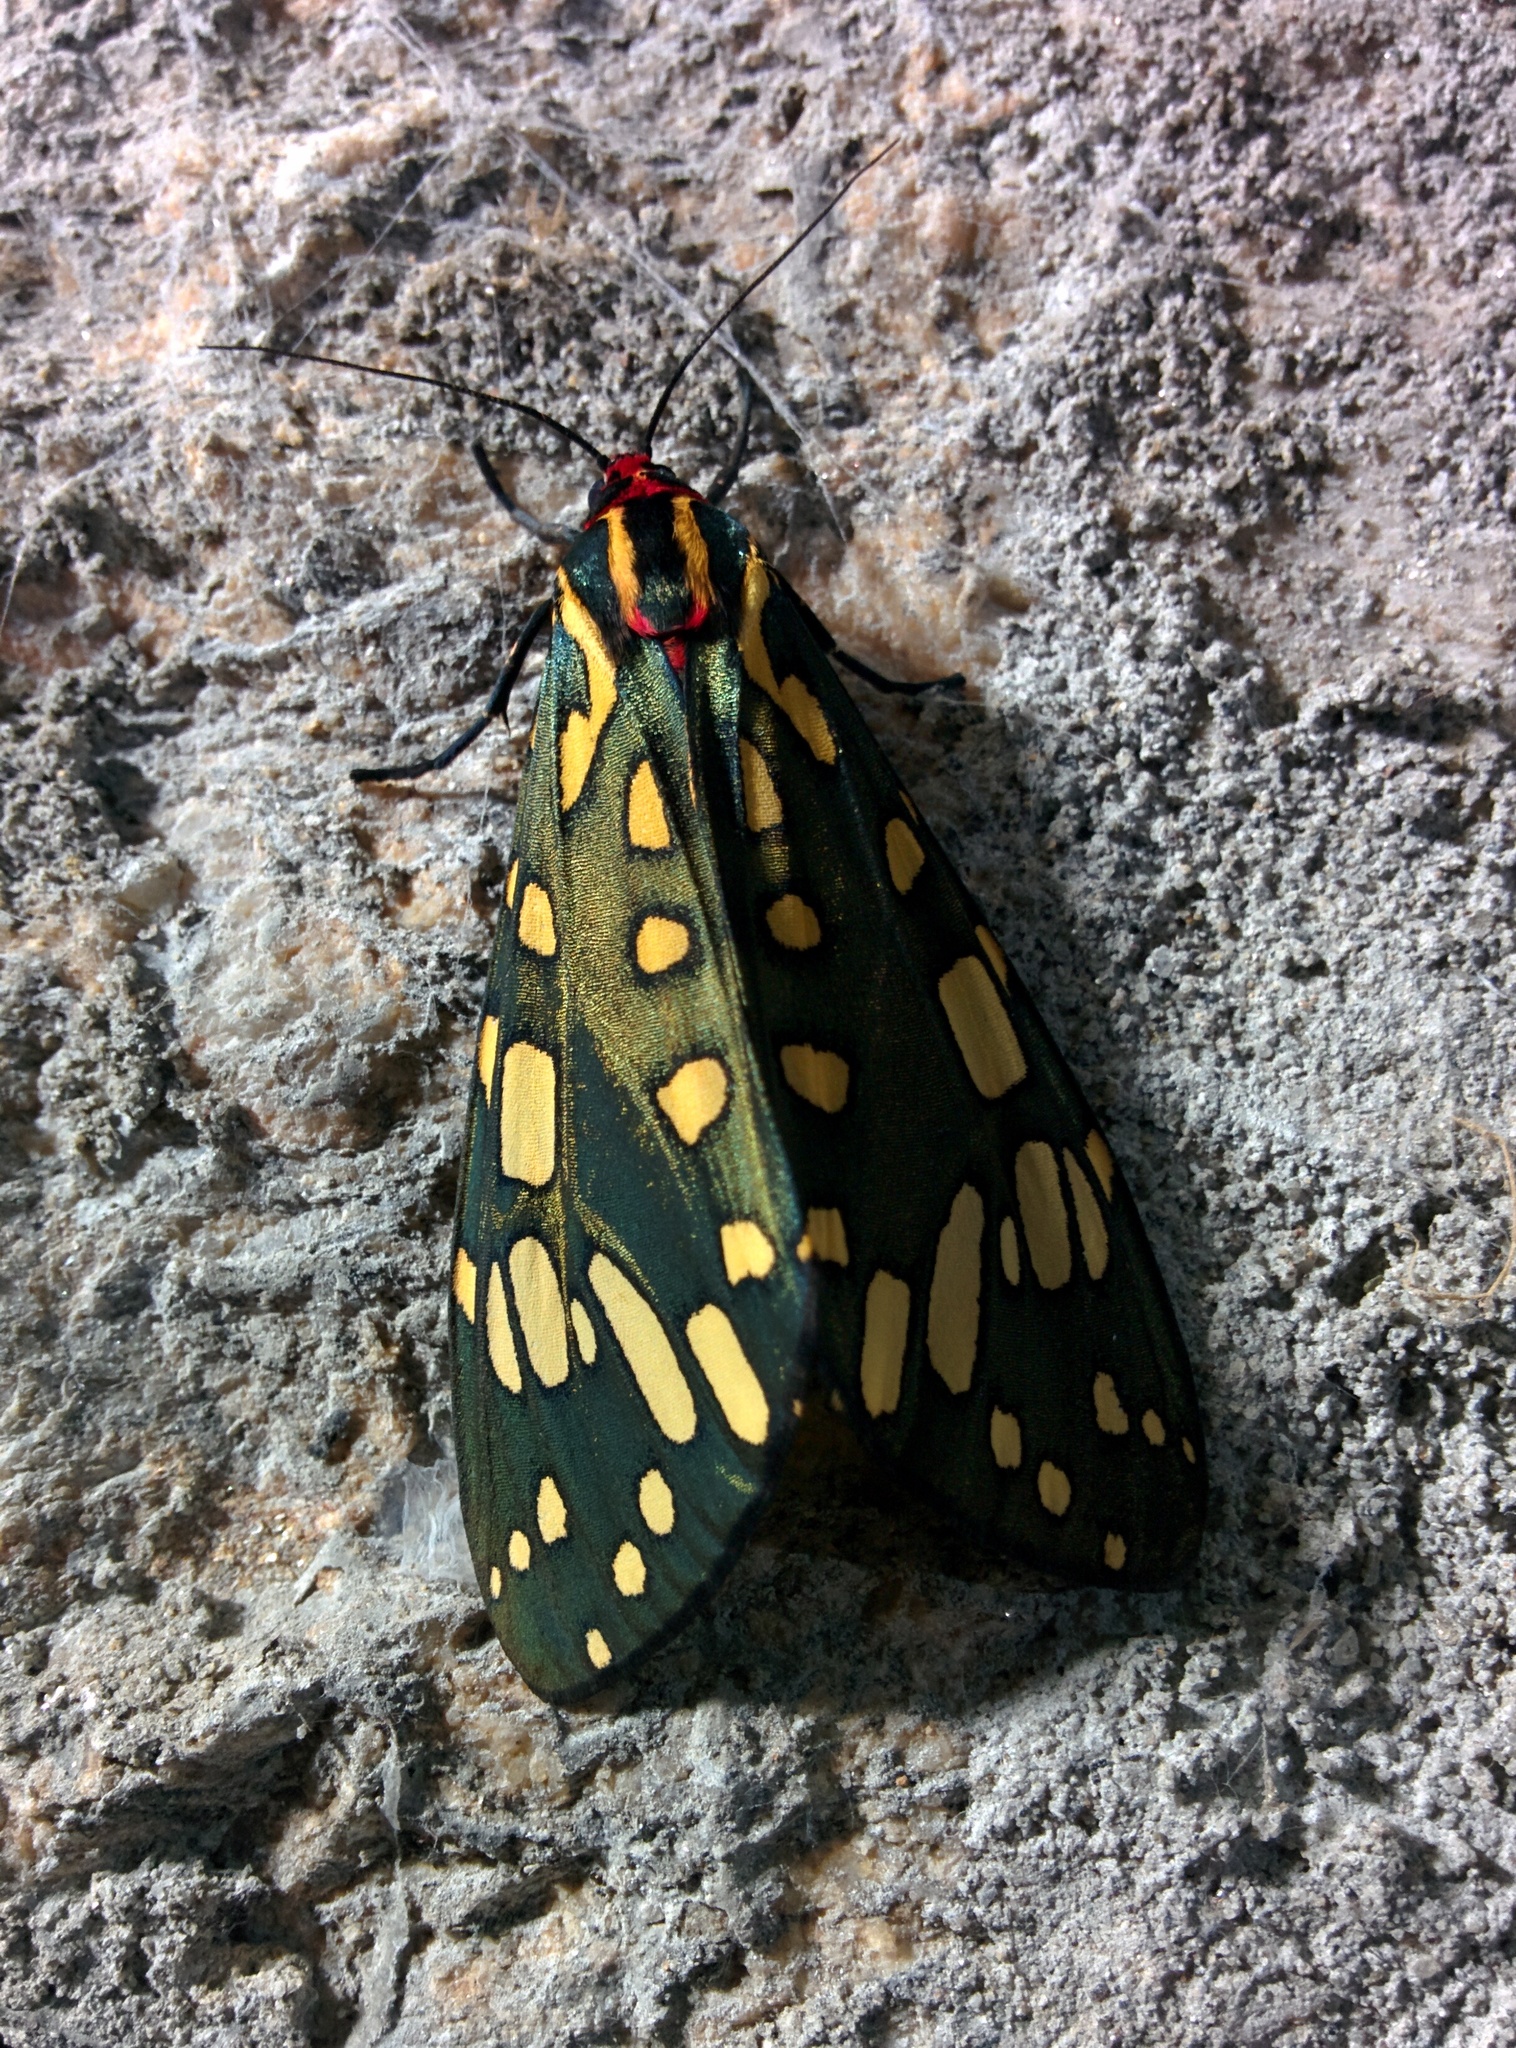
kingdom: Animalia
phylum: Arthropoda
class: Insecta
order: Lepidoptera
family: Erebidae
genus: Callindra
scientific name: Callindra principalis
